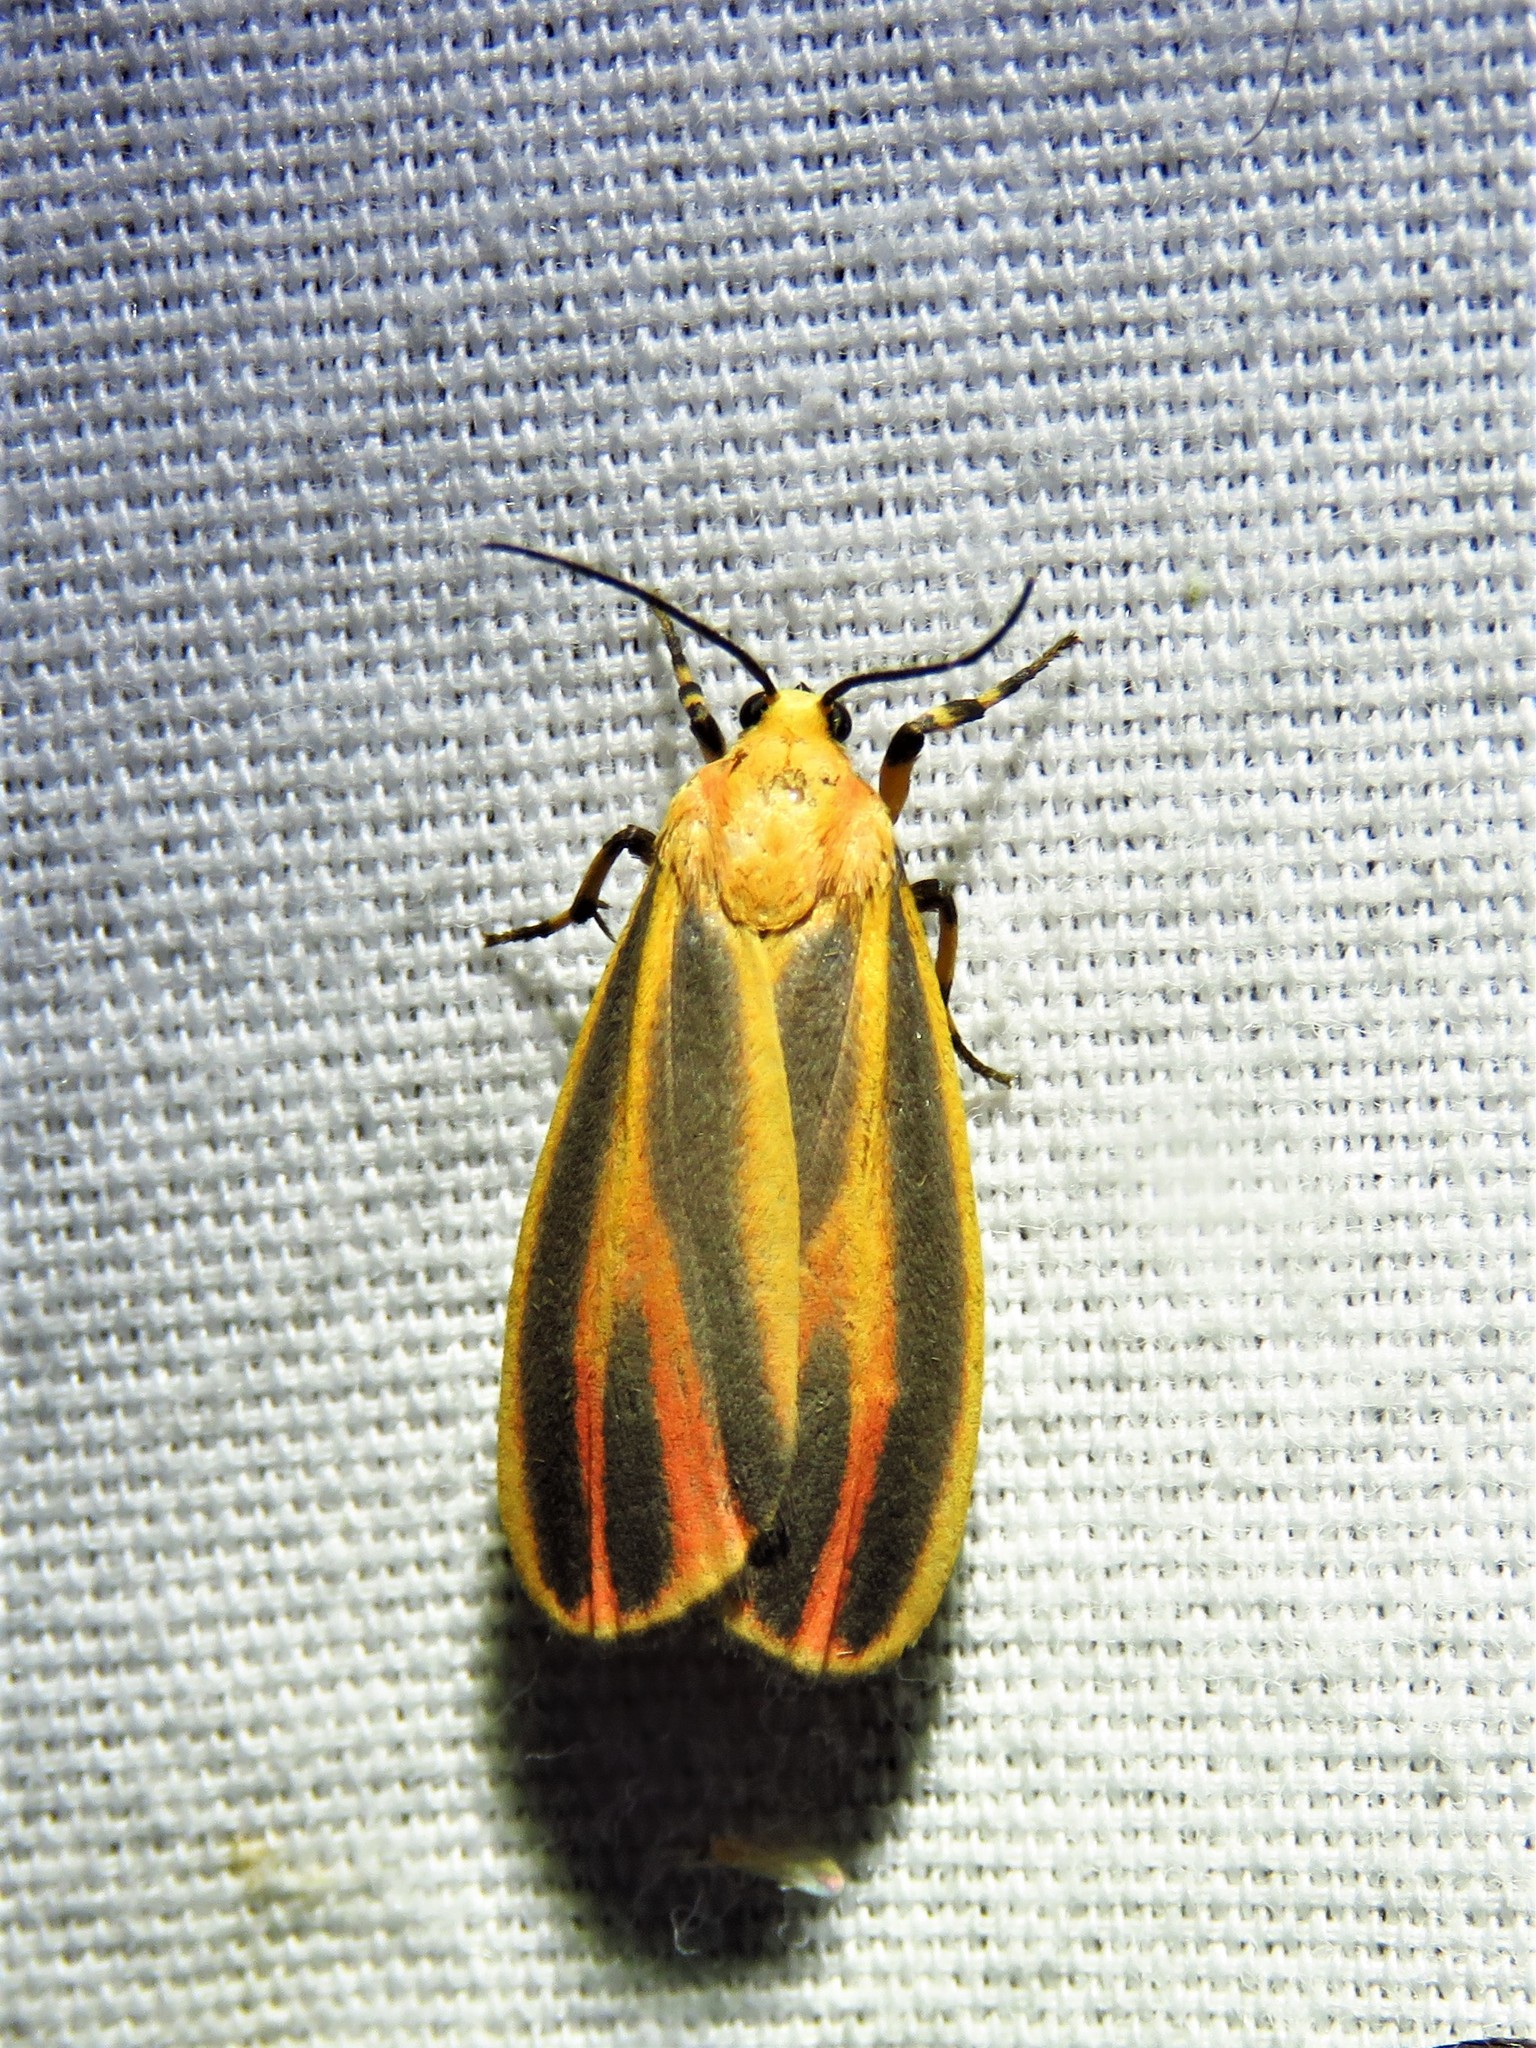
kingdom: Animalia
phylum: Arthropoda
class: Insecta
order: Lepidoptera
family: Erebidae
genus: Hypoprepia
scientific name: Hypoprepia fucosa
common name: Painted lichen moth
